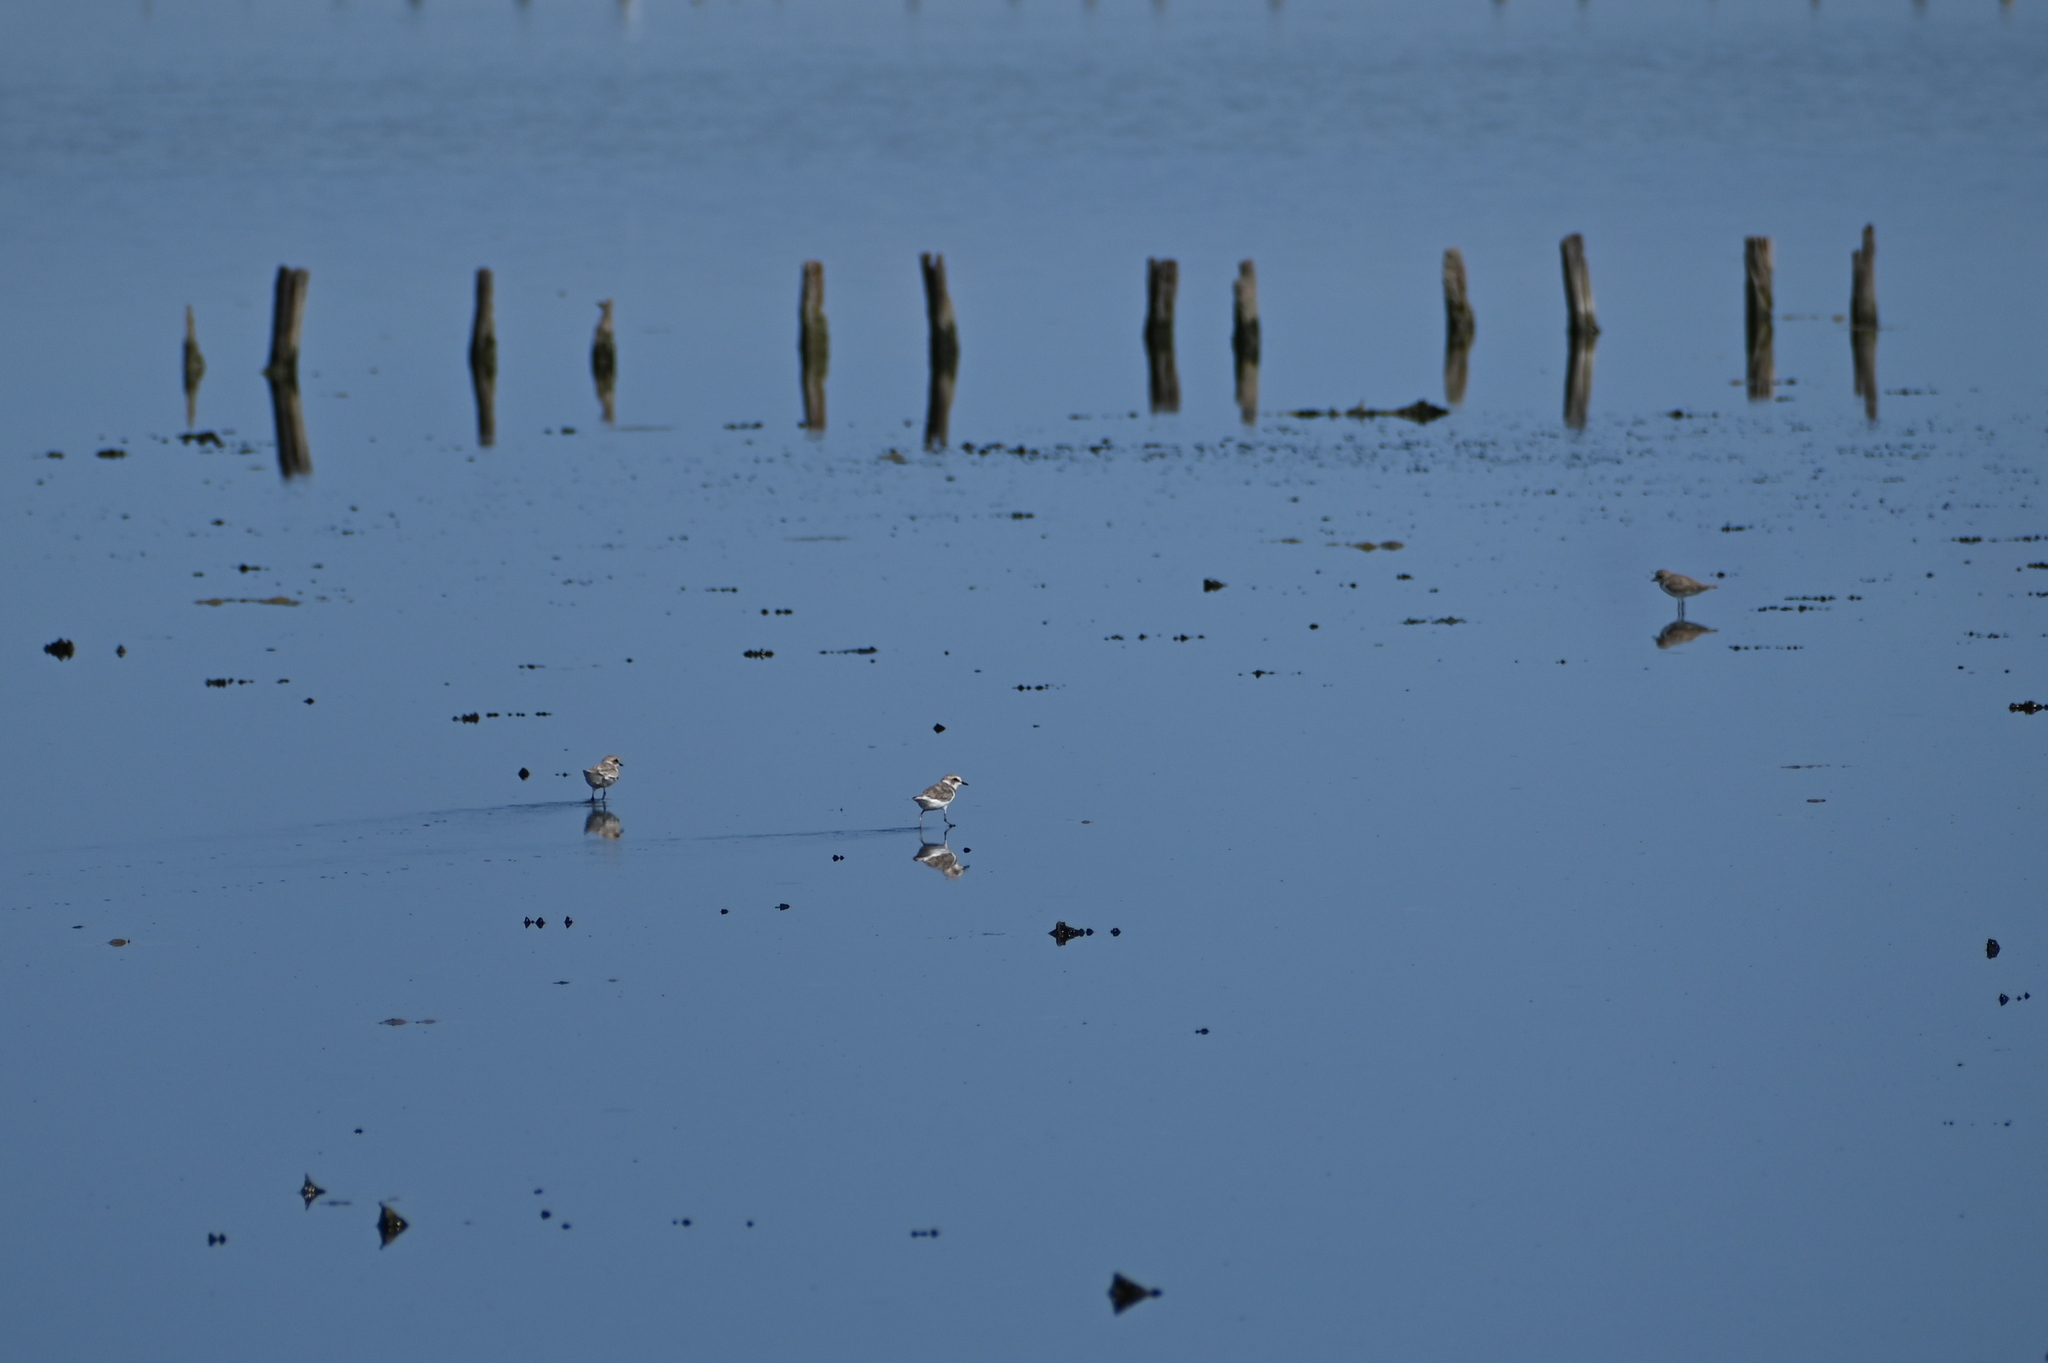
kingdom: Animalia
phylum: Chordata
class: Aves
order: Charadriiformes
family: Charadriidae
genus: Charadrius
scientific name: Charadrius alexandrinus
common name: Kentish plover
